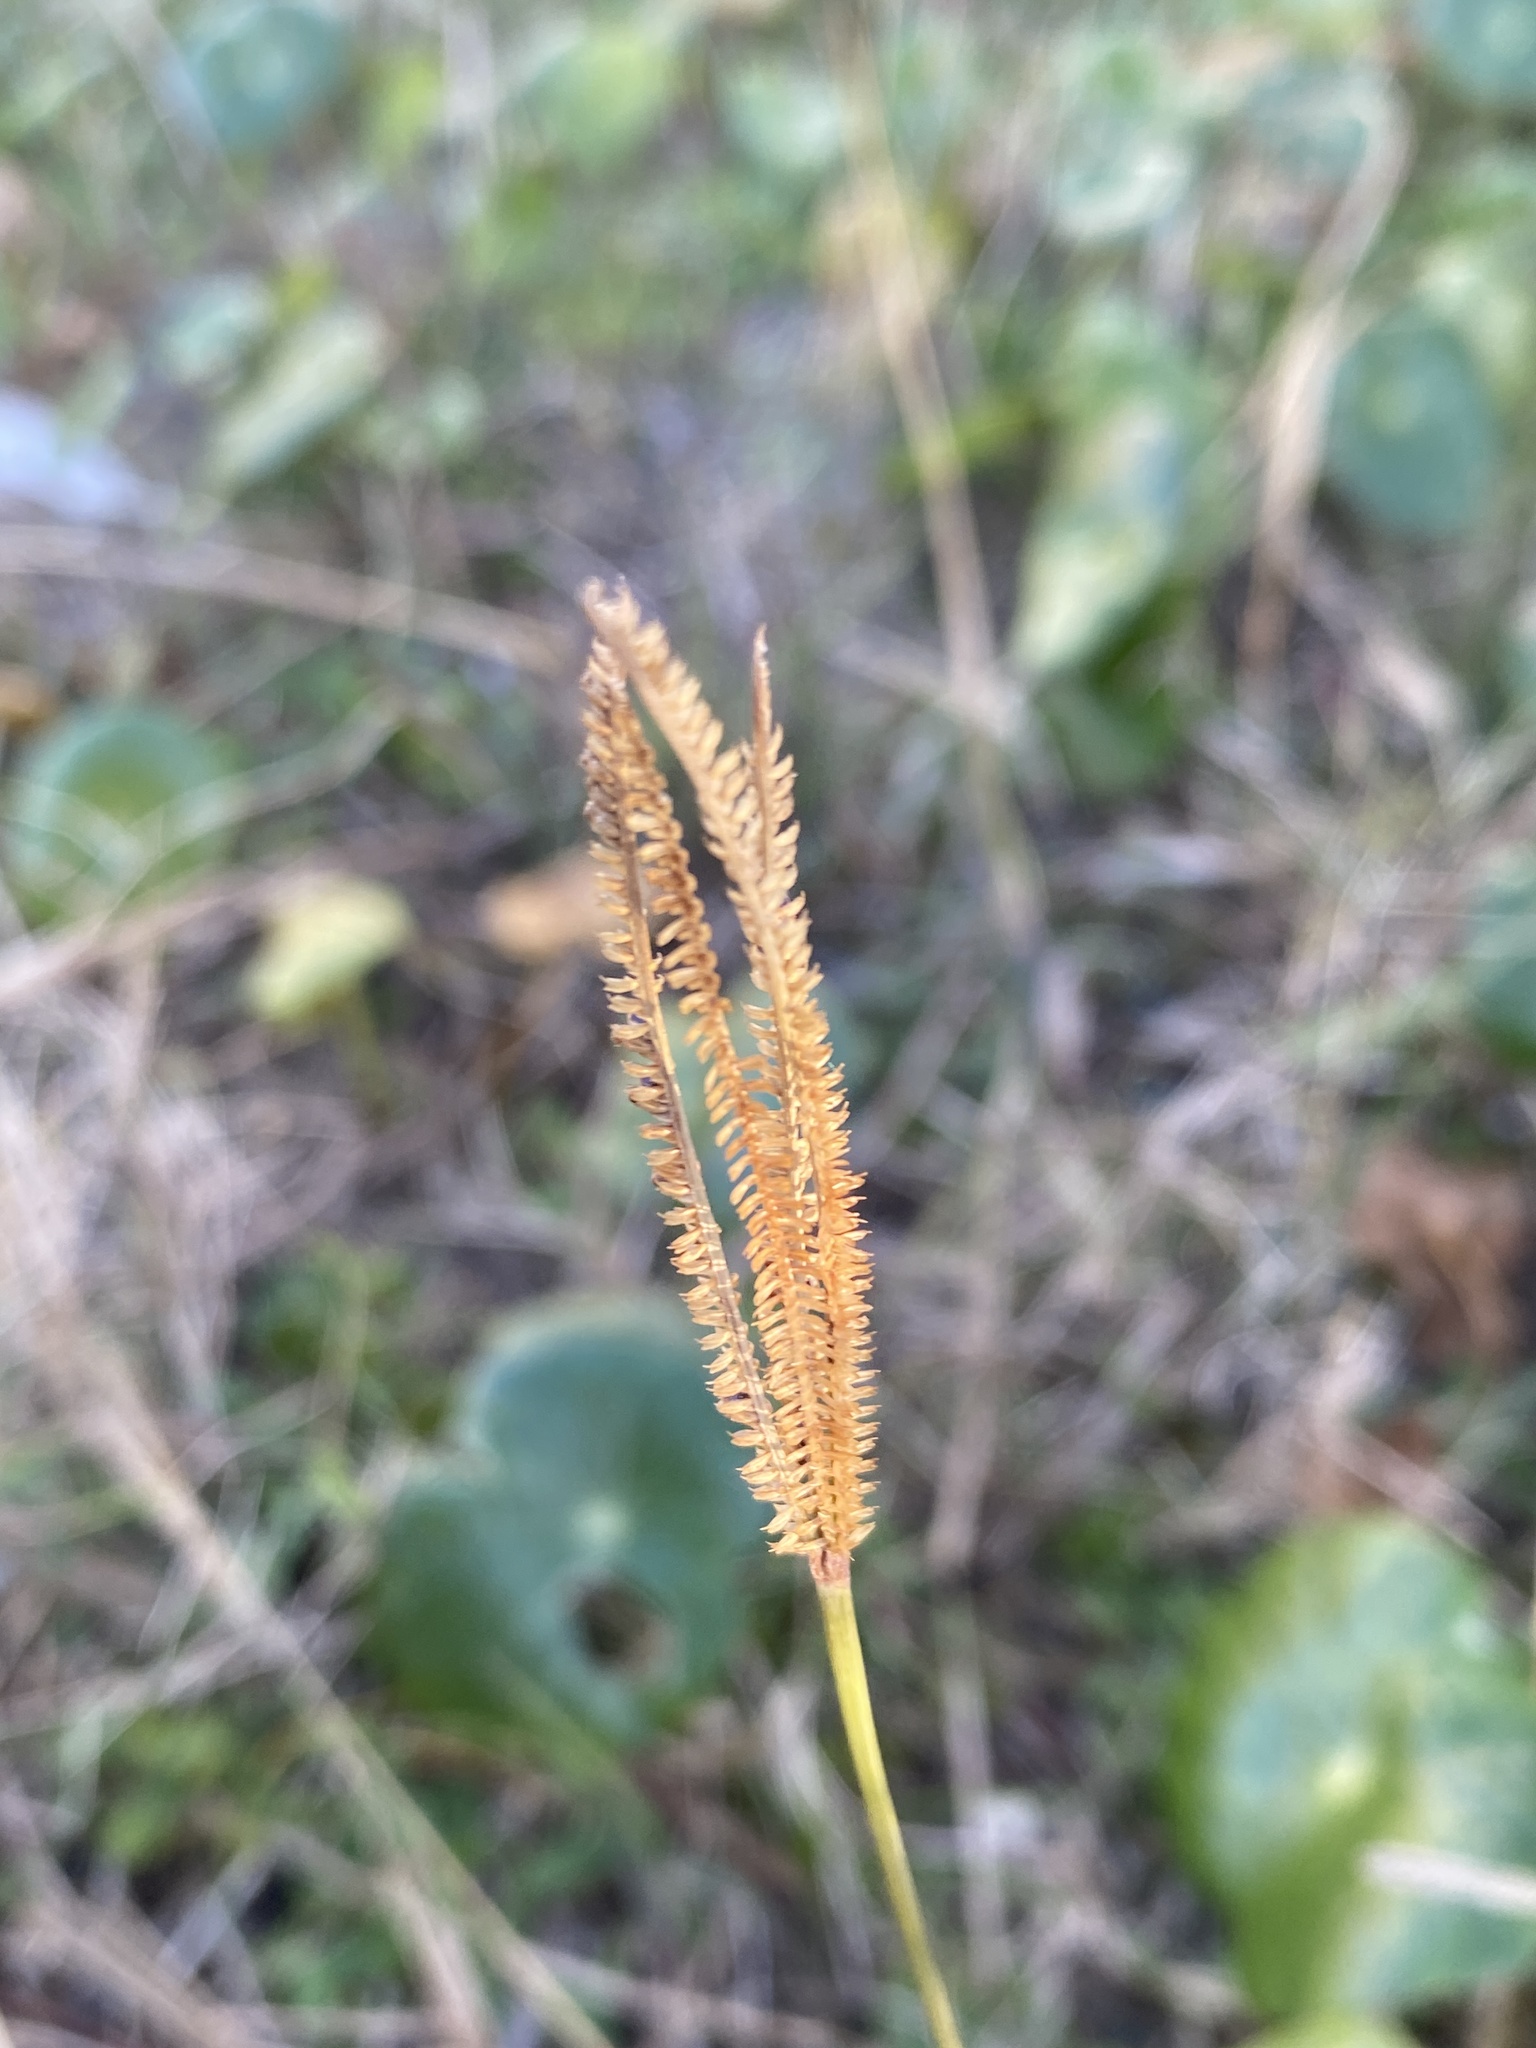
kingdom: Plantae
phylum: Tracheophyta
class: Liliopsida
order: Poales
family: Poaceae
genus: Eustachys
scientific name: Eustachys petraea
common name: Pinewoods fingergrass
